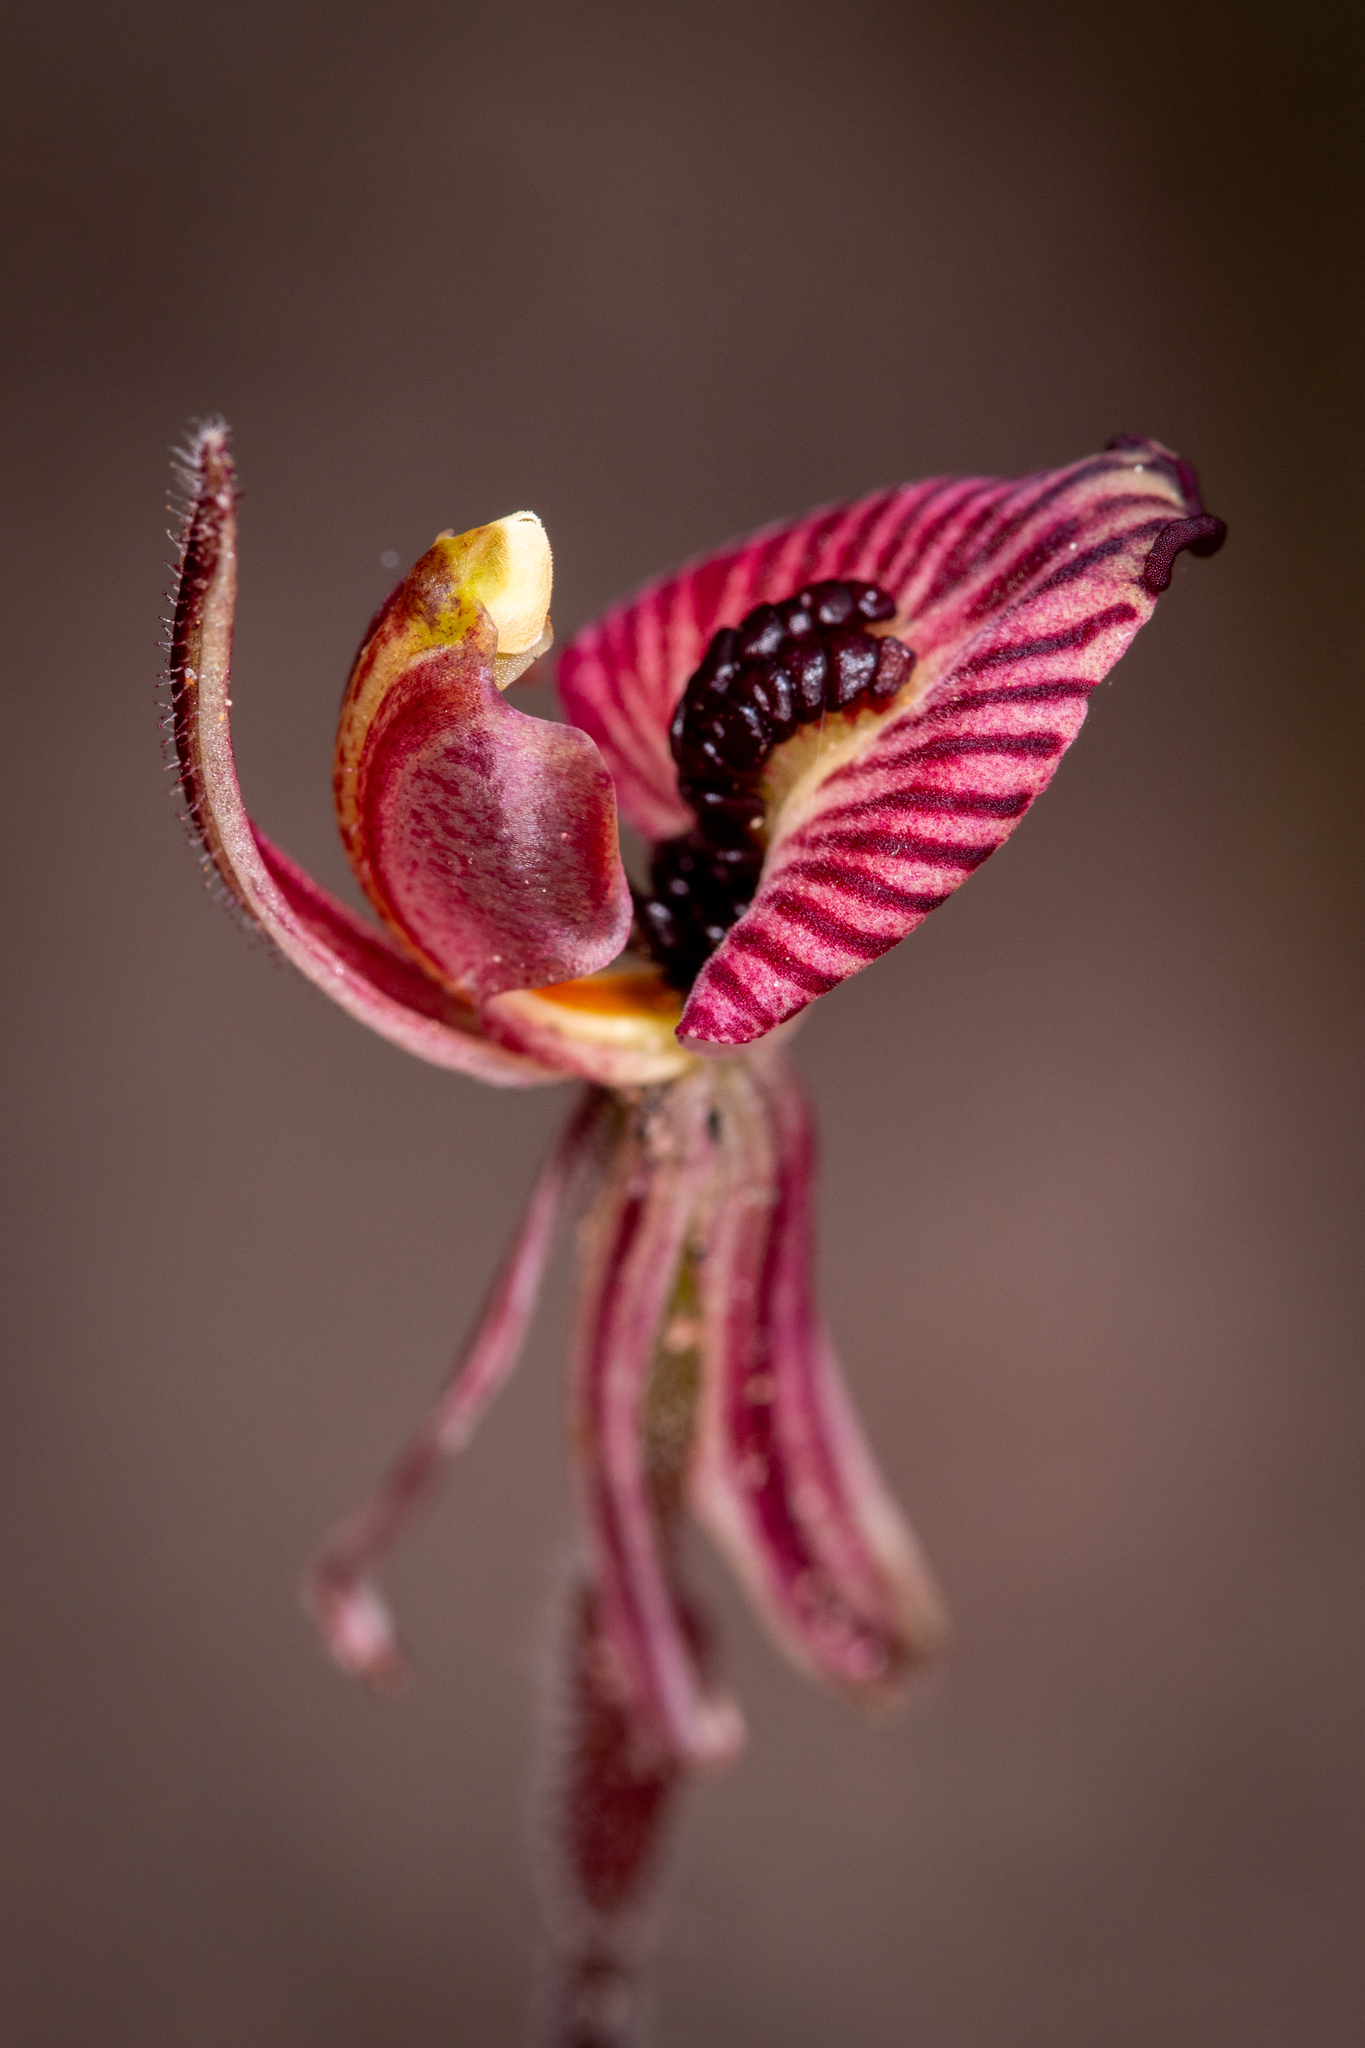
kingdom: Plantae
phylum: Tracheophyta
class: Liliopsida
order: Asparagales
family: Orchidaceae
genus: Caladenia
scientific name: Caladenia cairnsiana
